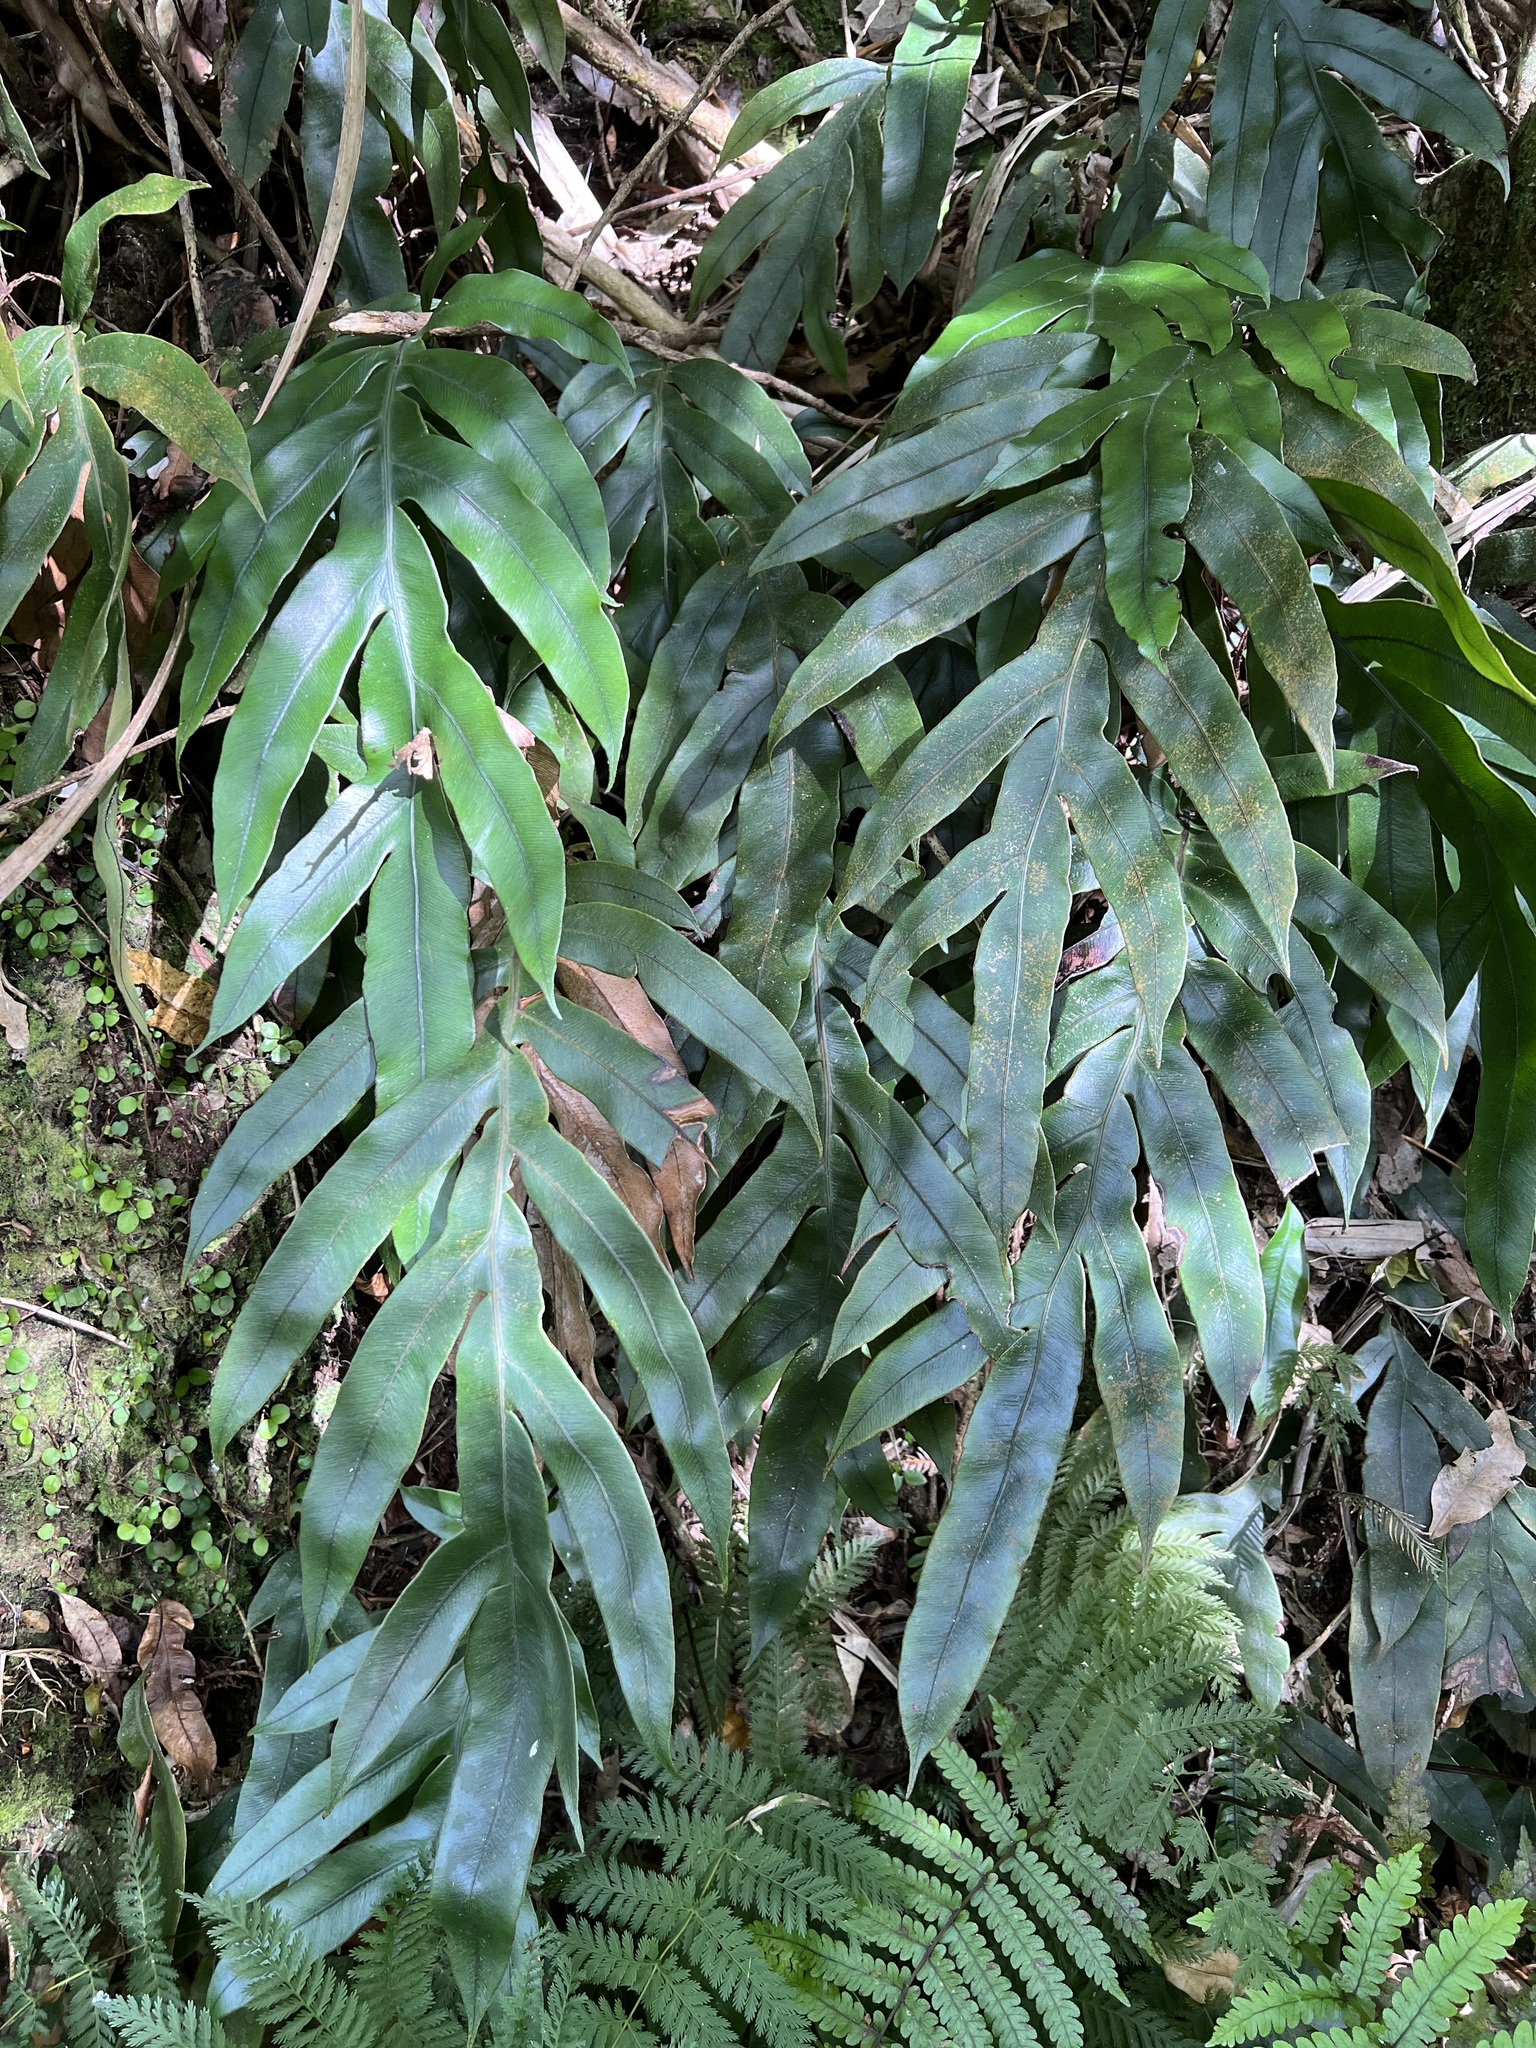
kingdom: Plantae
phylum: Tracheophyta
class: Polypodiopsida
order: Polypodiales
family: Blechnaceae
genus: Austroblechnum
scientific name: Austroblechnum colensoi
